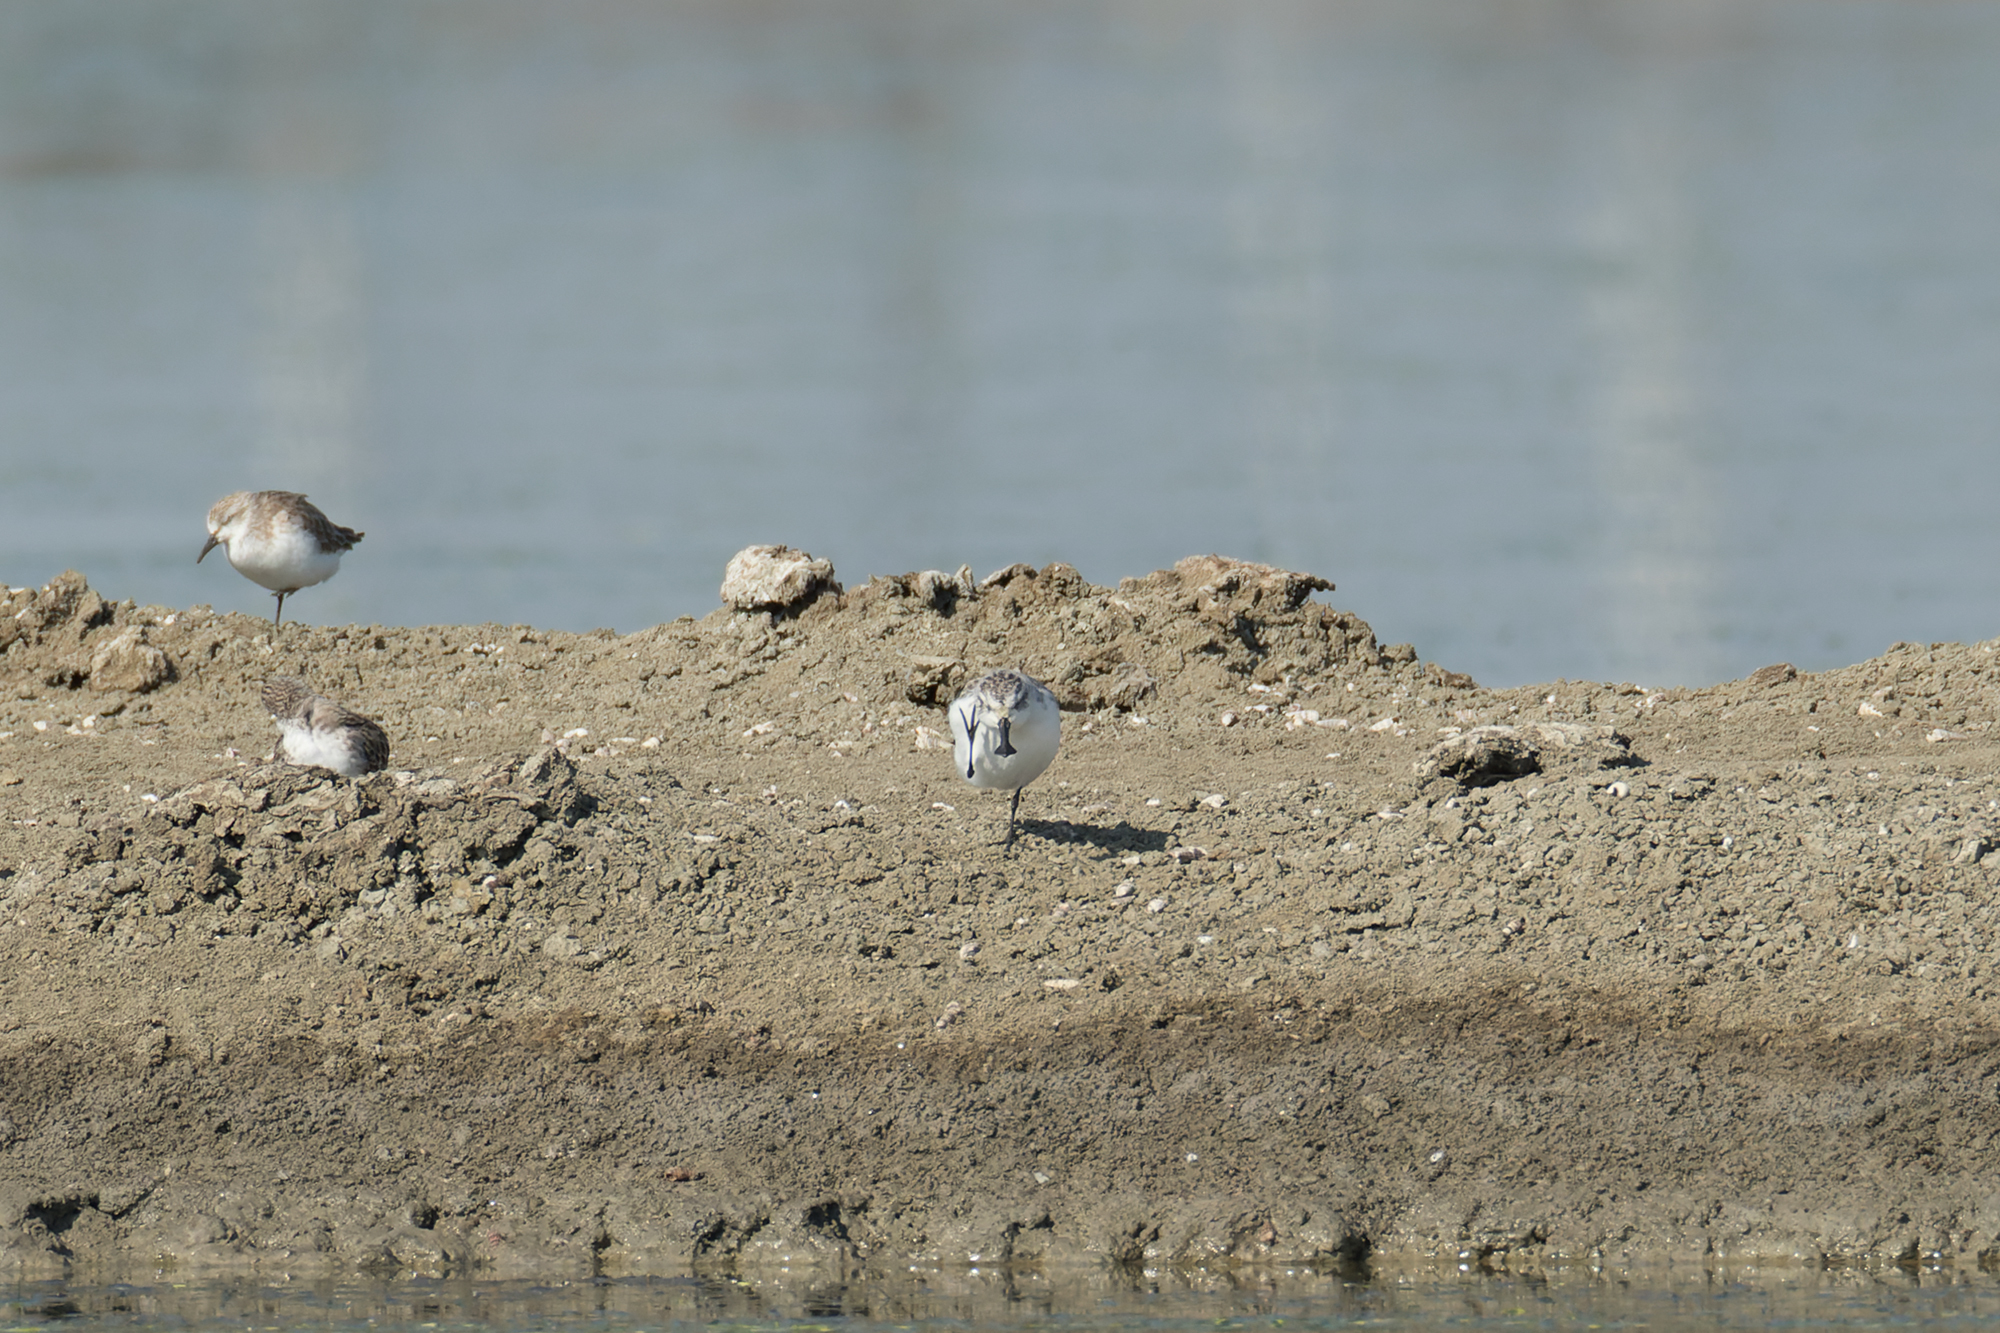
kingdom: Animalia
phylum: Chordata
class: Aves
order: Charadriiformes
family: Scolopacidae
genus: Calidris
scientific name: Calidris pygmaea
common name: Spoon-billed sandpiper
